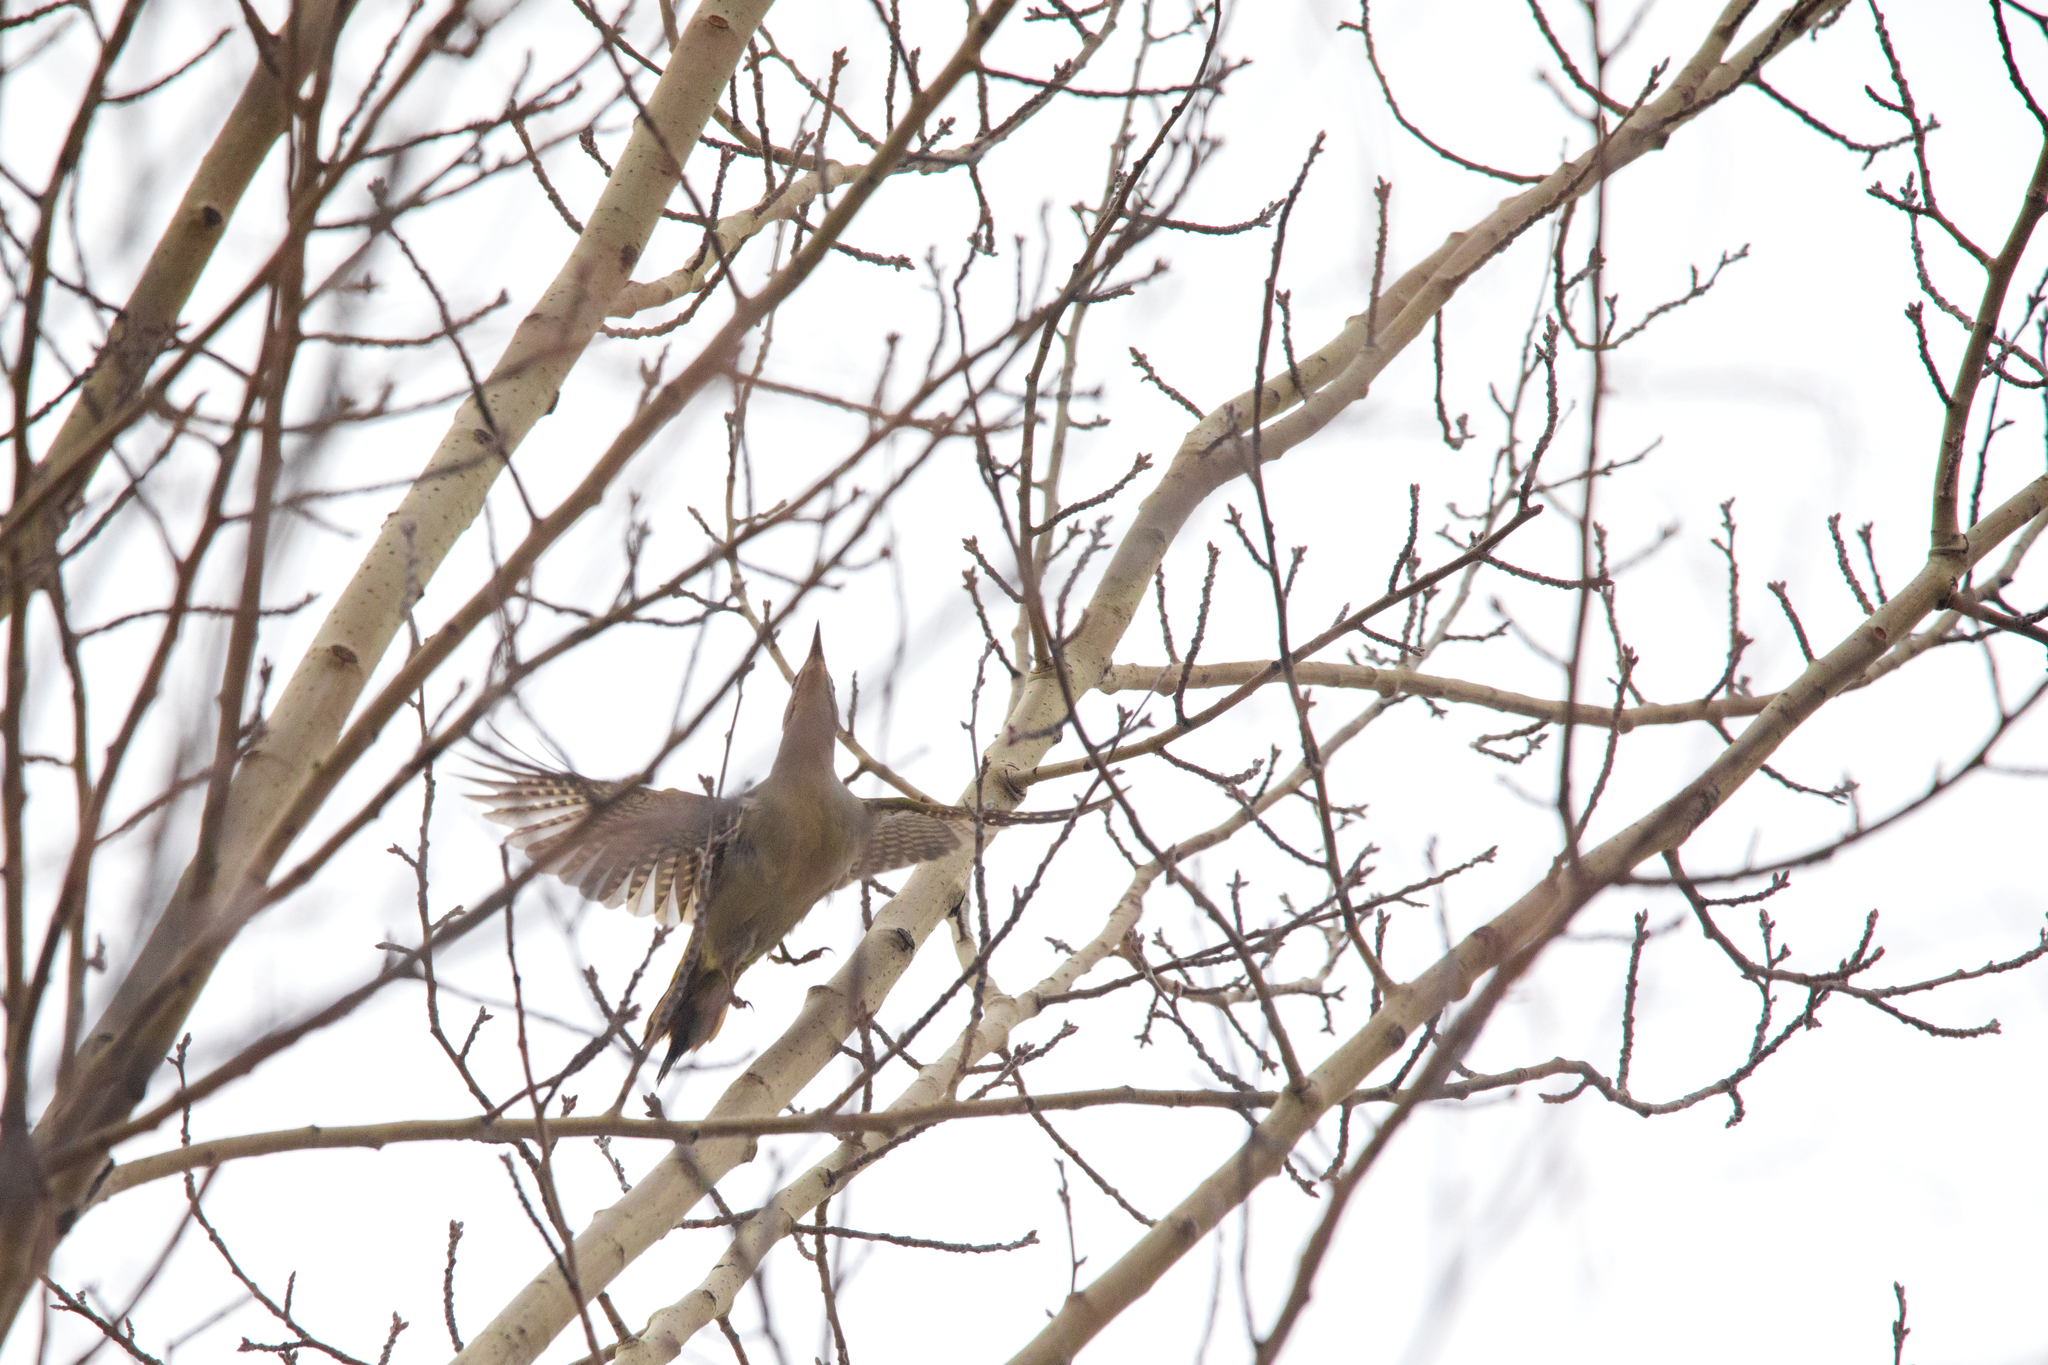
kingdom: Animalia
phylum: Chordata
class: Aves
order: Piciformes
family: Picidae
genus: Picus
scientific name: Picus canus
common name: Grey-headed woodpecker
